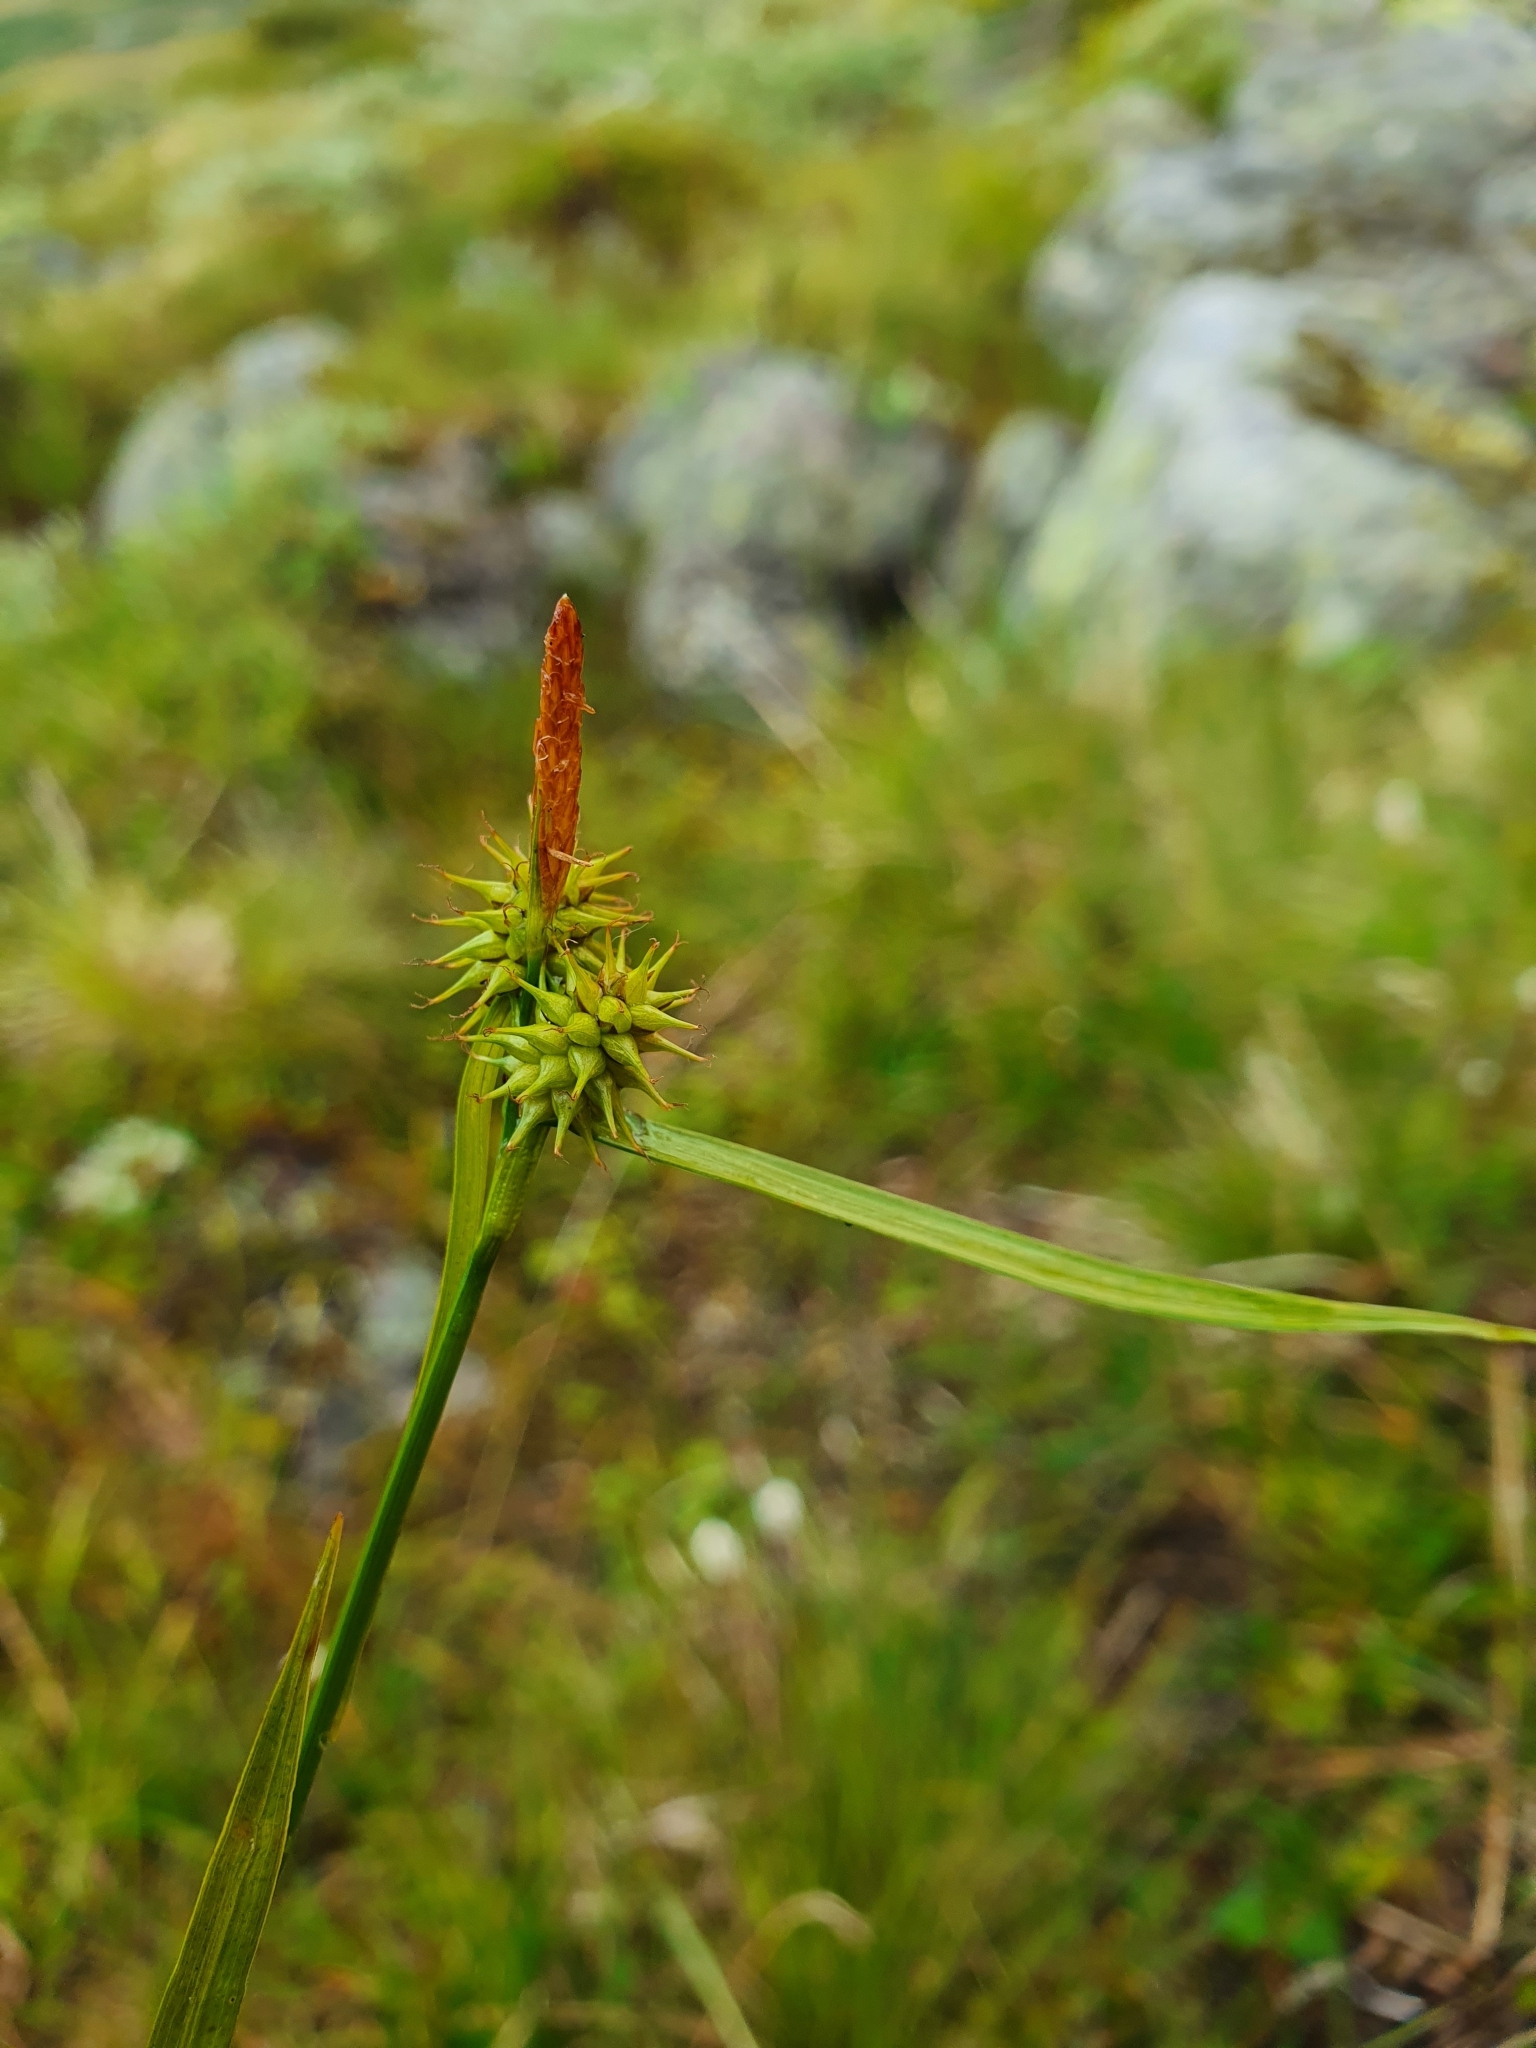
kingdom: Plantae
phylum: Tracheophyta
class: Liliopsida
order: Poales
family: Cyperaceae
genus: Carex
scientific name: Carex flava
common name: Large yellow-sedge
